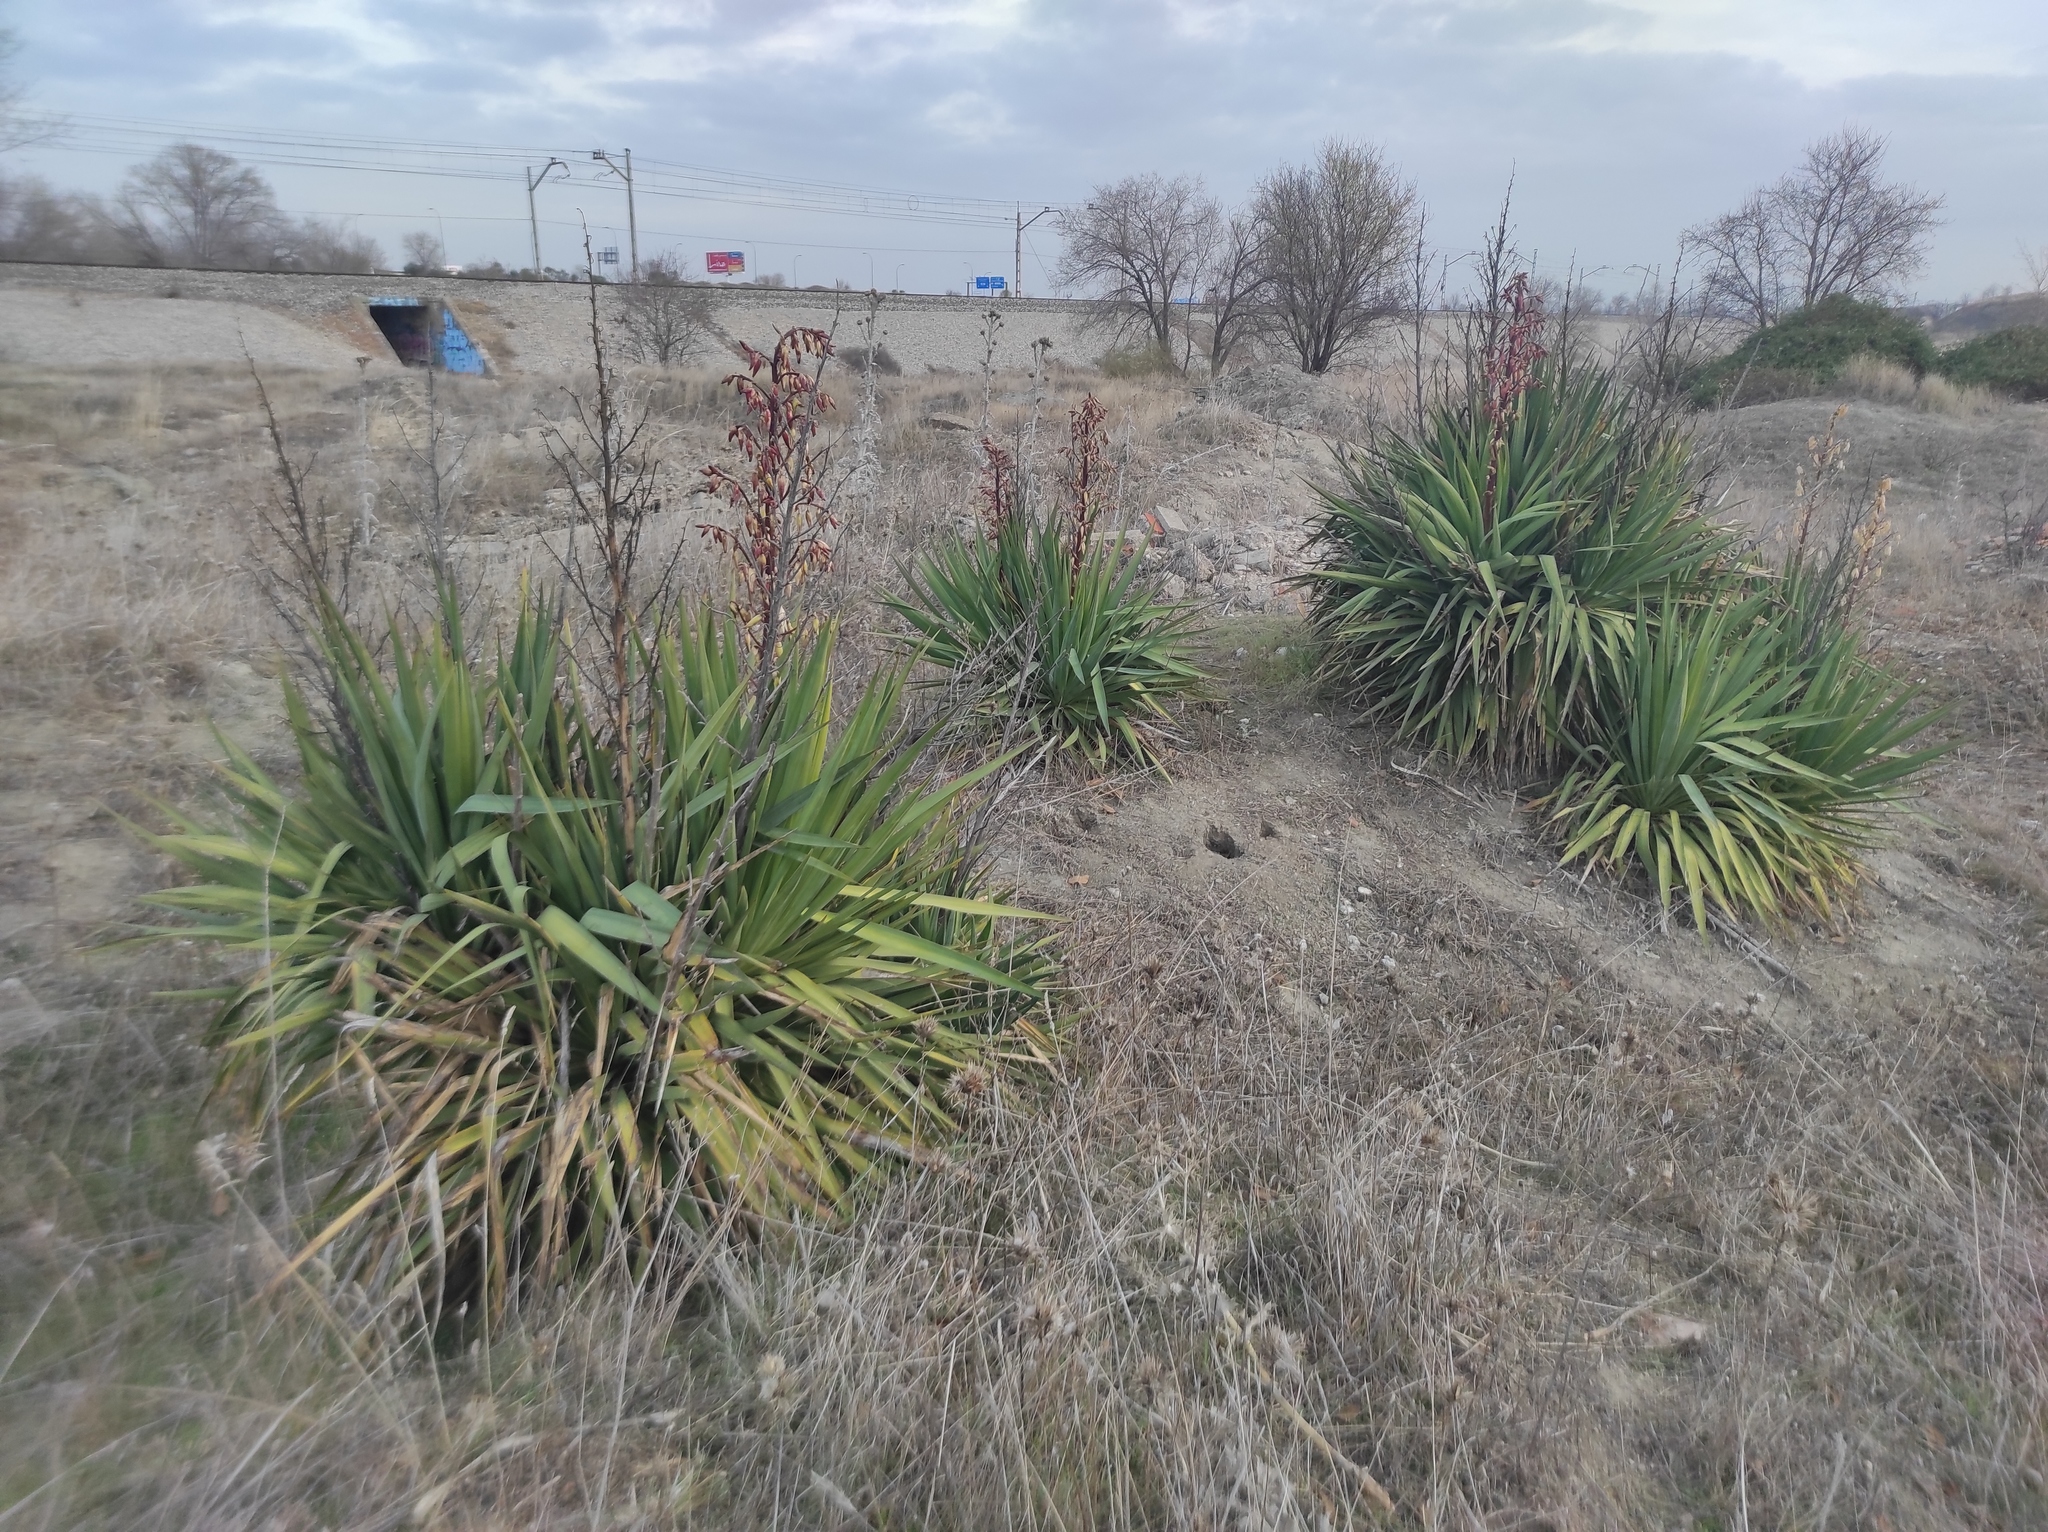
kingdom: Plantae
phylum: Tracheophyta
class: Liliopsida
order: Asparagales
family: Asparagaceae
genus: Yucca
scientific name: Yucca gloriosa
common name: Spanish-dagger
